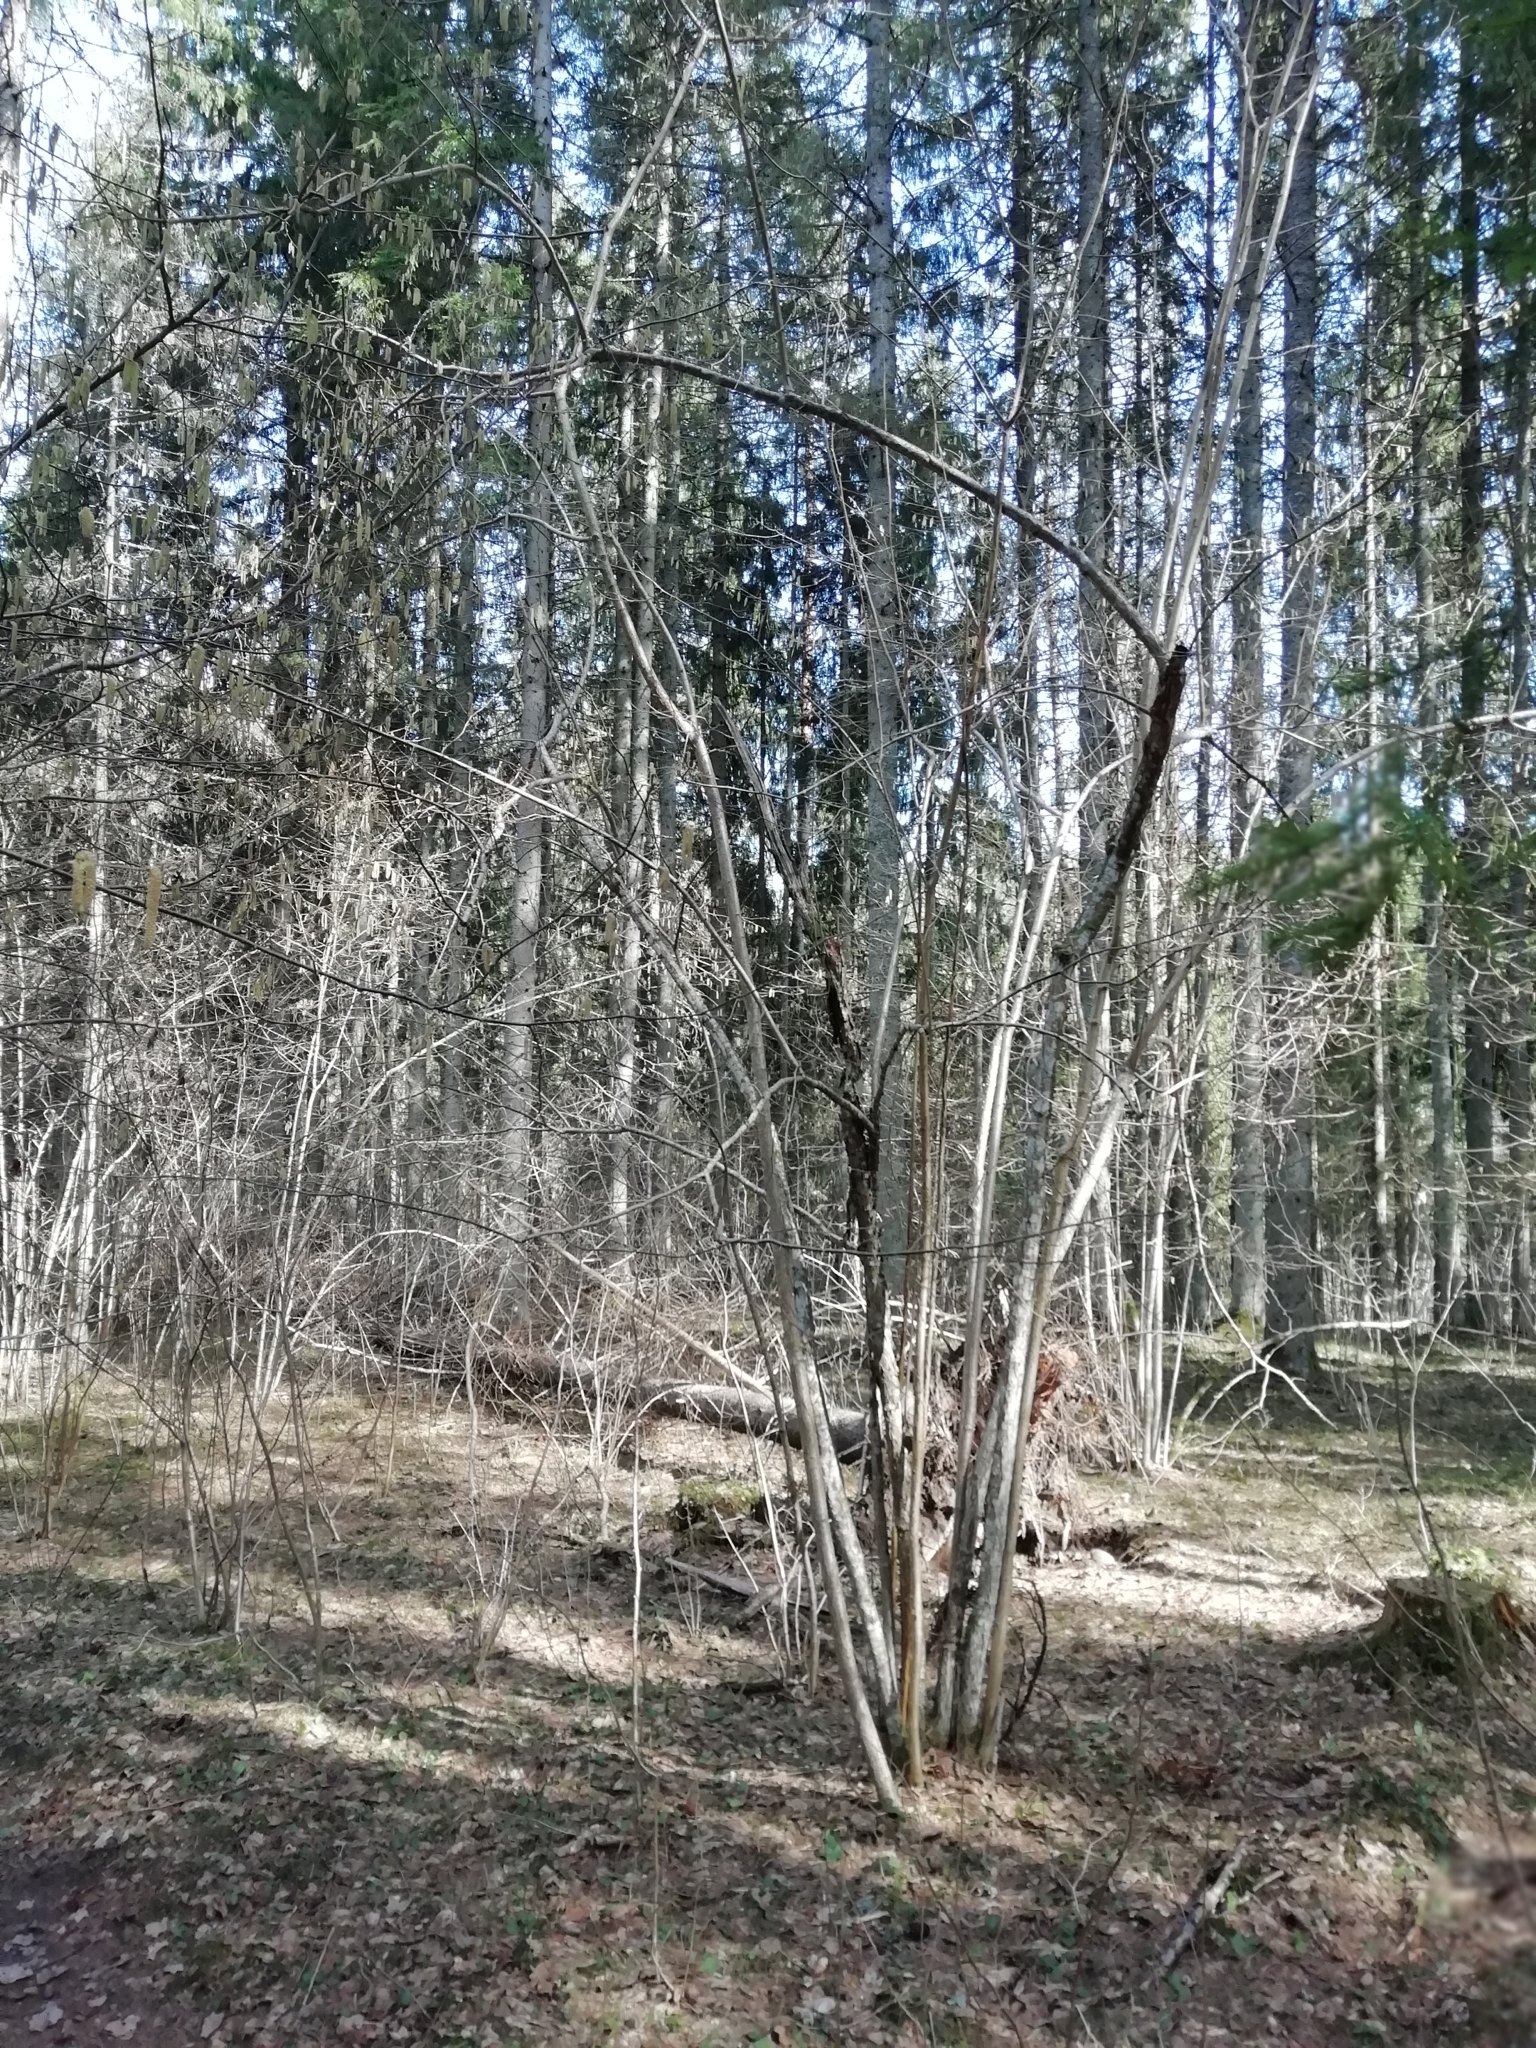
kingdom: Plantae
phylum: Tracheophyta
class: Magnoliopsida
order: Fagales
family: Betulaceae
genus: Corylus
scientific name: Corylus avellana
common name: European hazel
